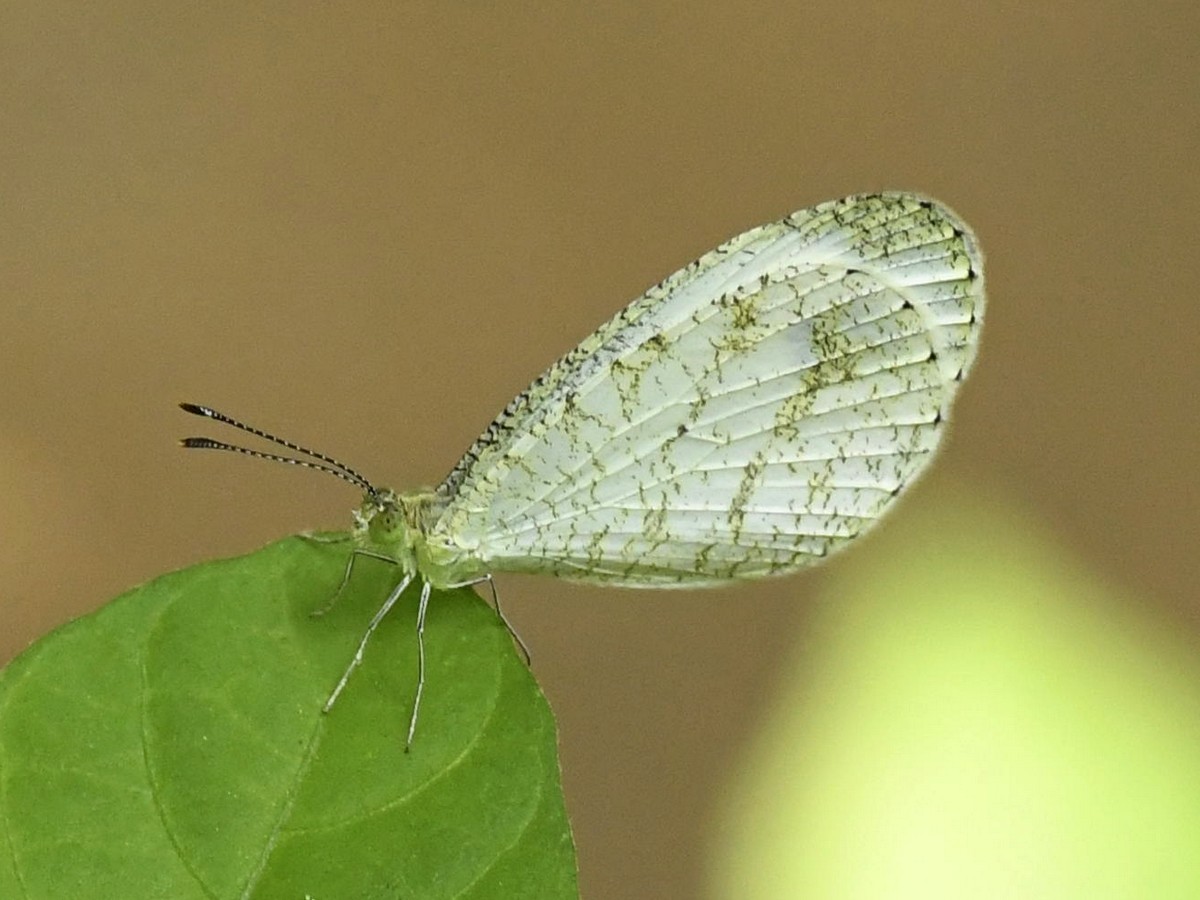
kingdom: Animalia
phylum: Arthropoda
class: Insecta
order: Lepidoptera
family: Pieridae
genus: Leptosia
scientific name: Leptosia nina
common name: Psyche
